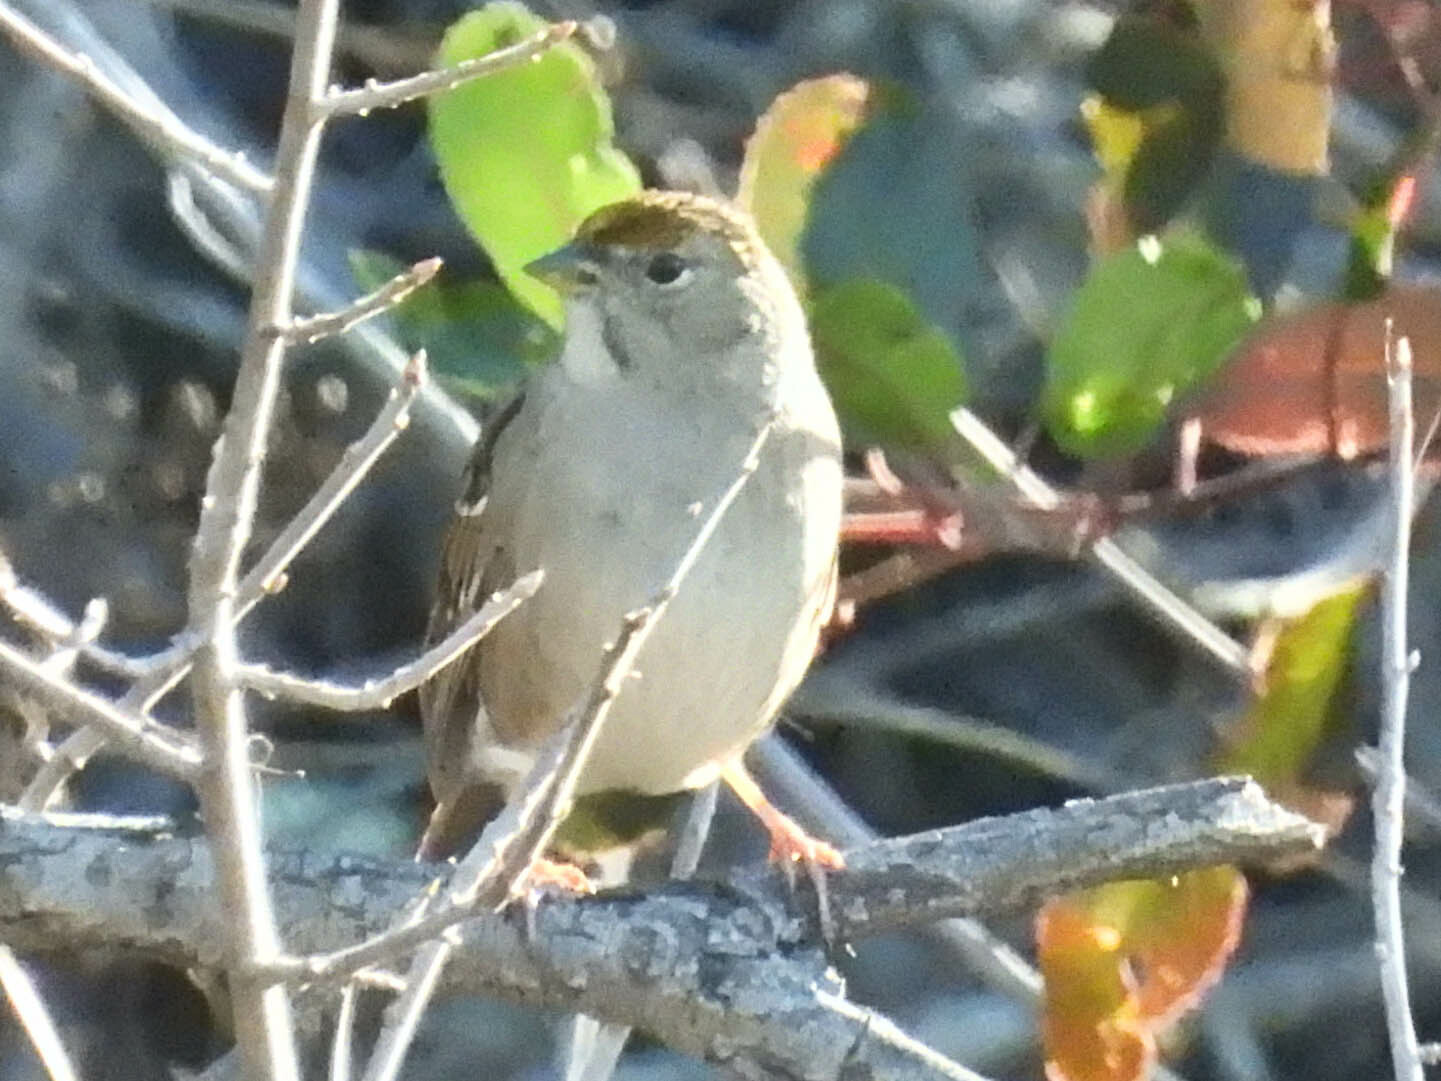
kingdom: Animalia
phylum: Chordata
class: Aves
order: Passeriformes
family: Passerellidae
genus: Zonotrichia
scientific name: Zonotrichia atricapilla
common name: Golden-crowned sparrow
